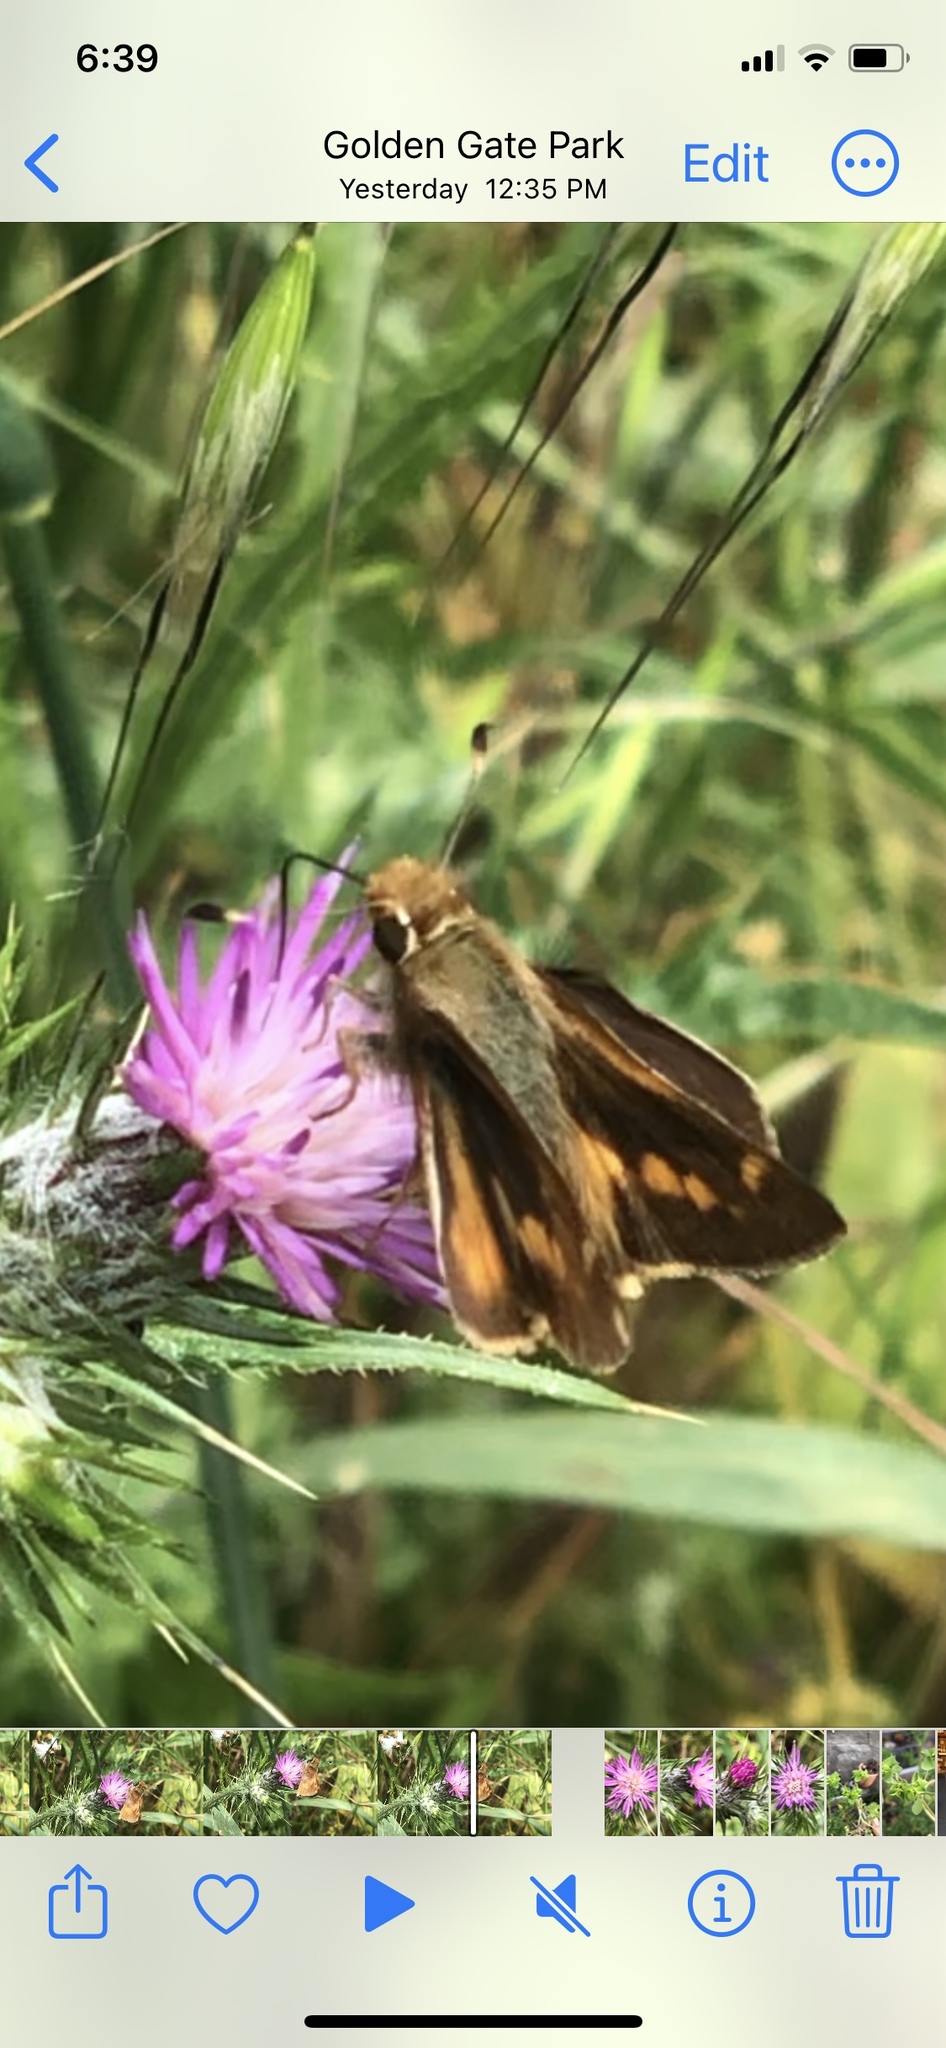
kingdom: Animalia
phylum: Arthropoda
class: Insecta
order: Lepidoptera
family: Hesperiidae
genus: Lon
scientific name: Lon melane
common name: Umber skipper
